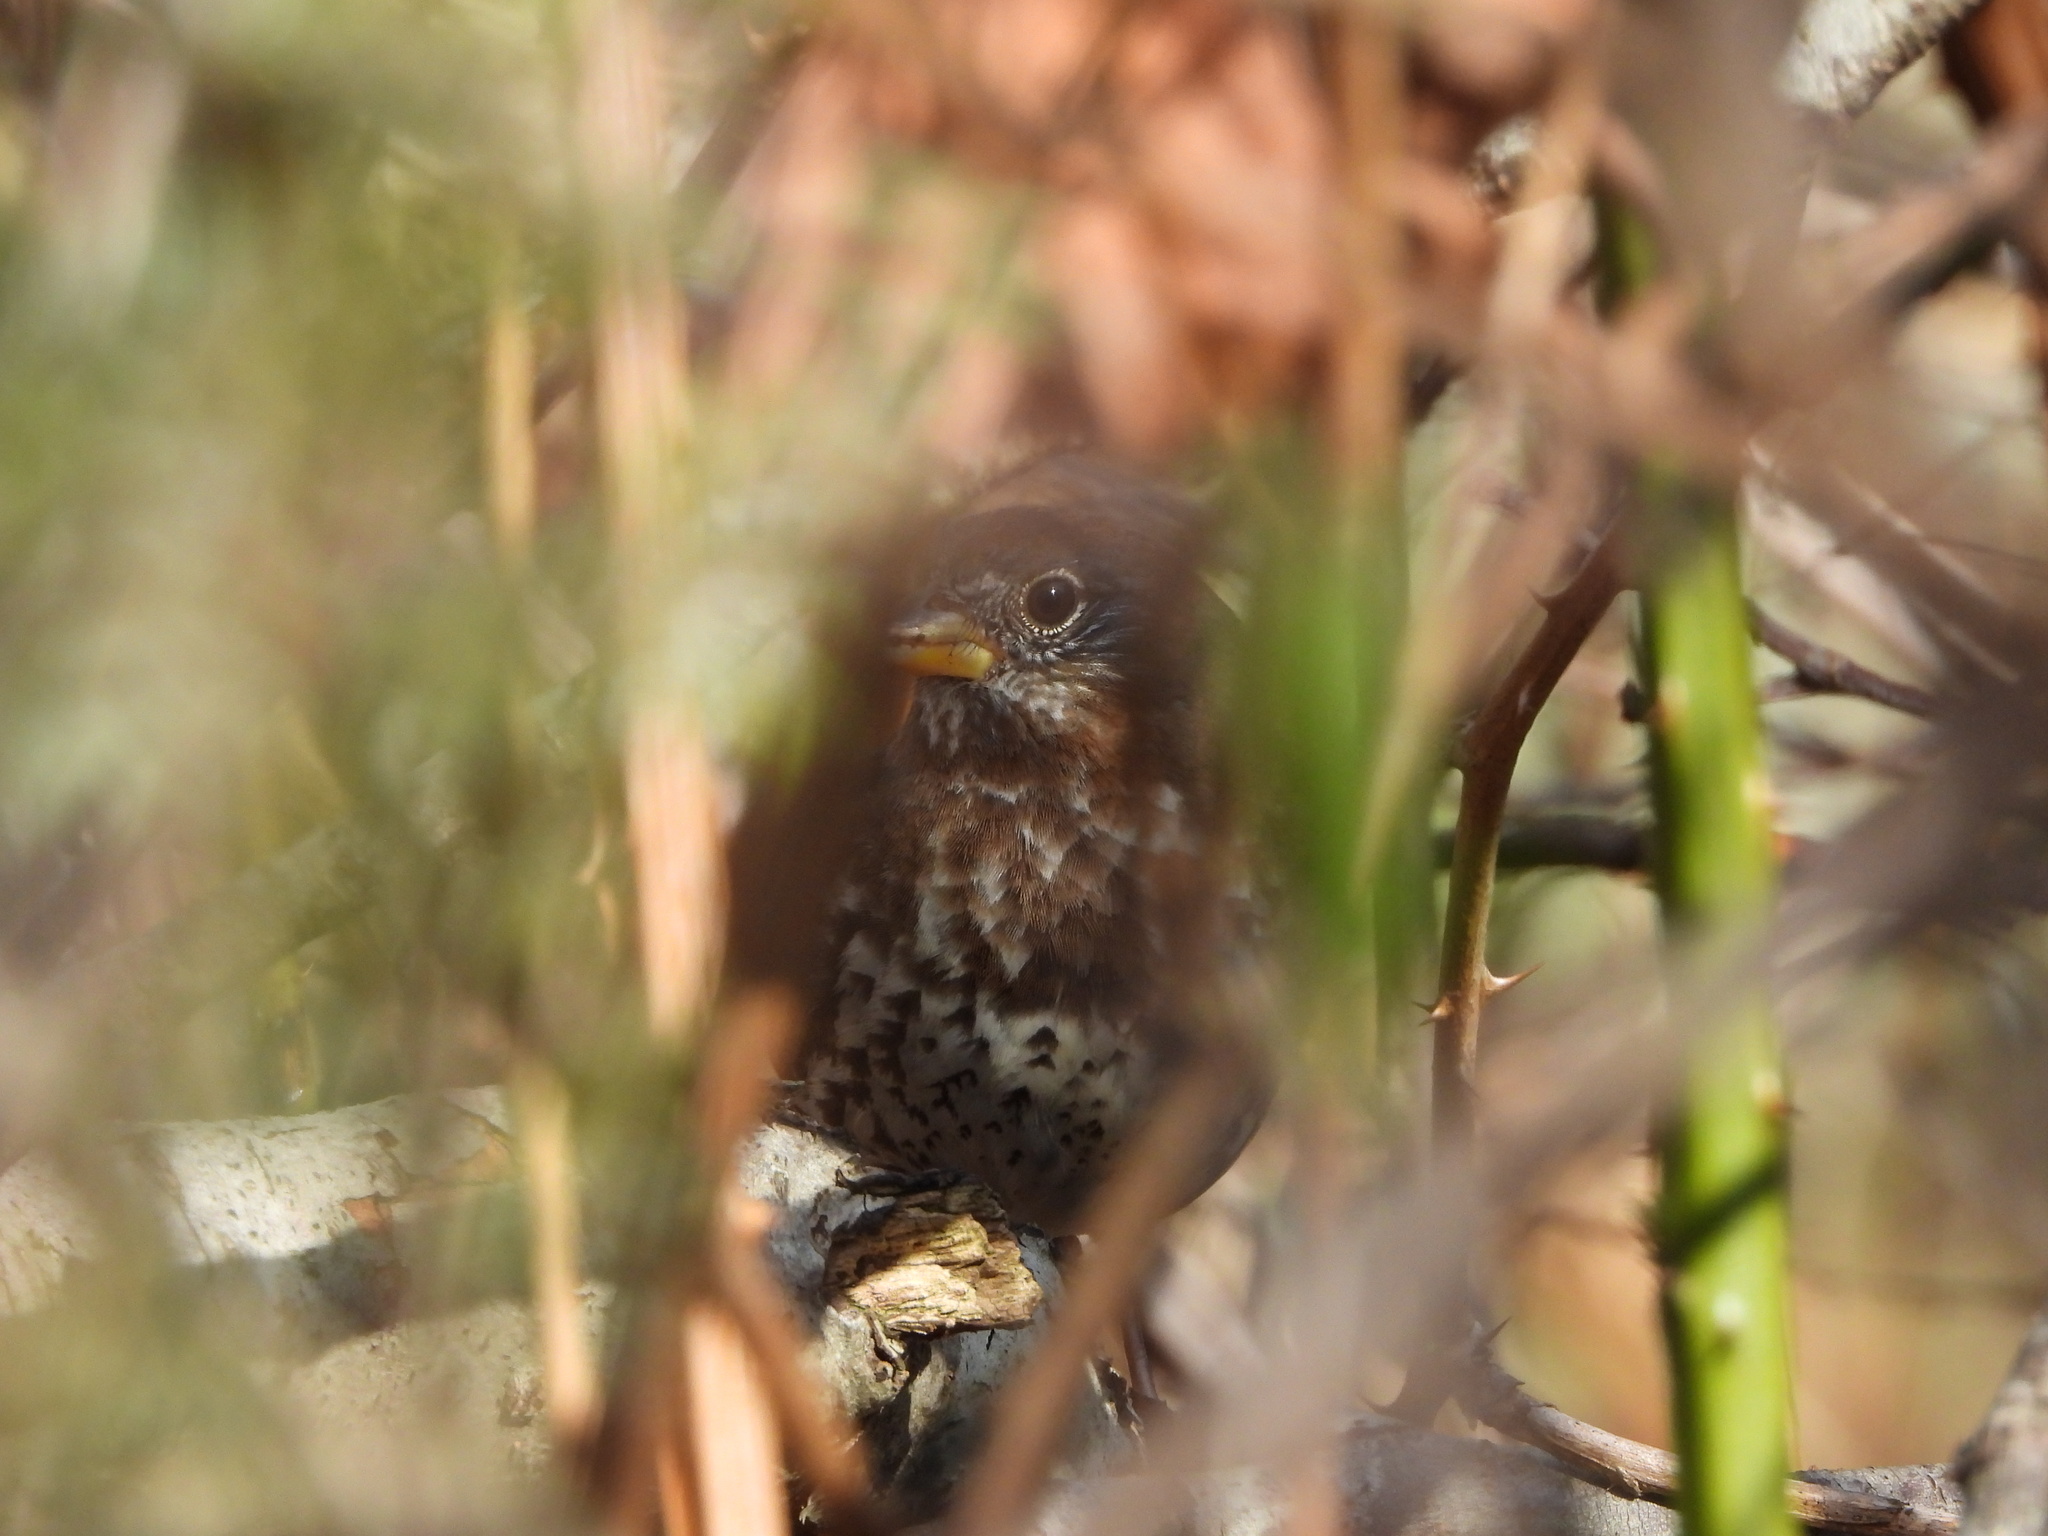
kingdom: Animalia
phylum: Chordata
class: Aves
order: Passeriformes
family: Passerellidae
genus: Passerella
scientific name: Passerella iliaca
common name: Fox sparrow
